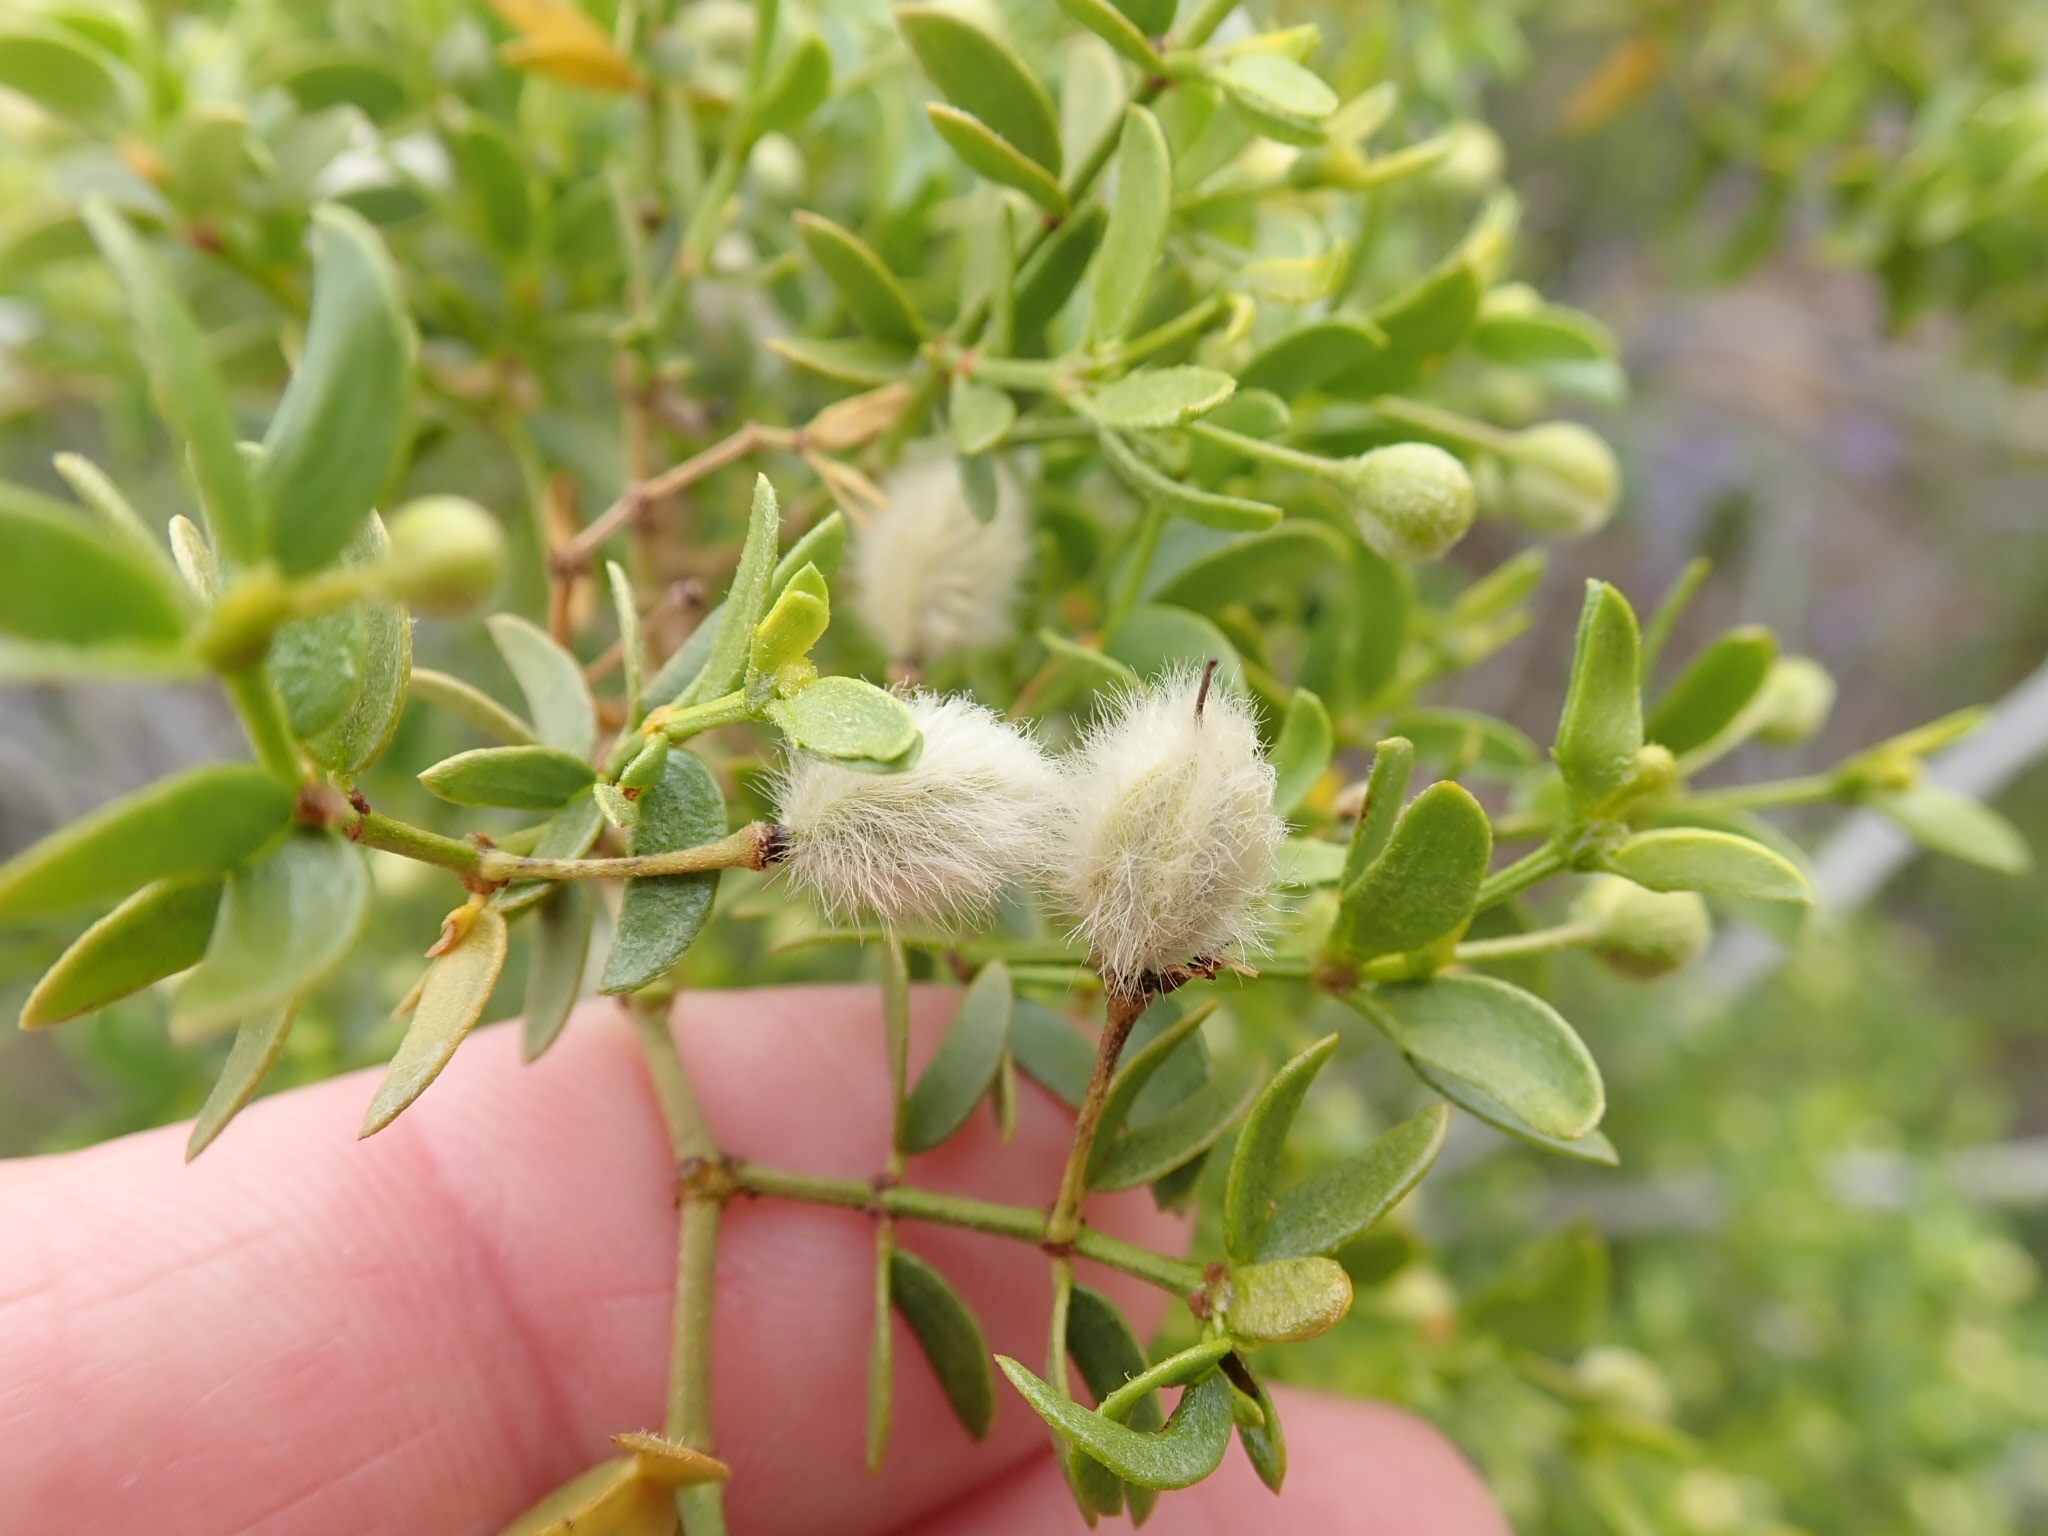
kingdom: Plantae
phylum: Tracheophyta
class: Magnoliopsida
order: Zygophyllales
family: Zygophyllaceae
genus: Larrea
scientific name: Larrea tridentata
